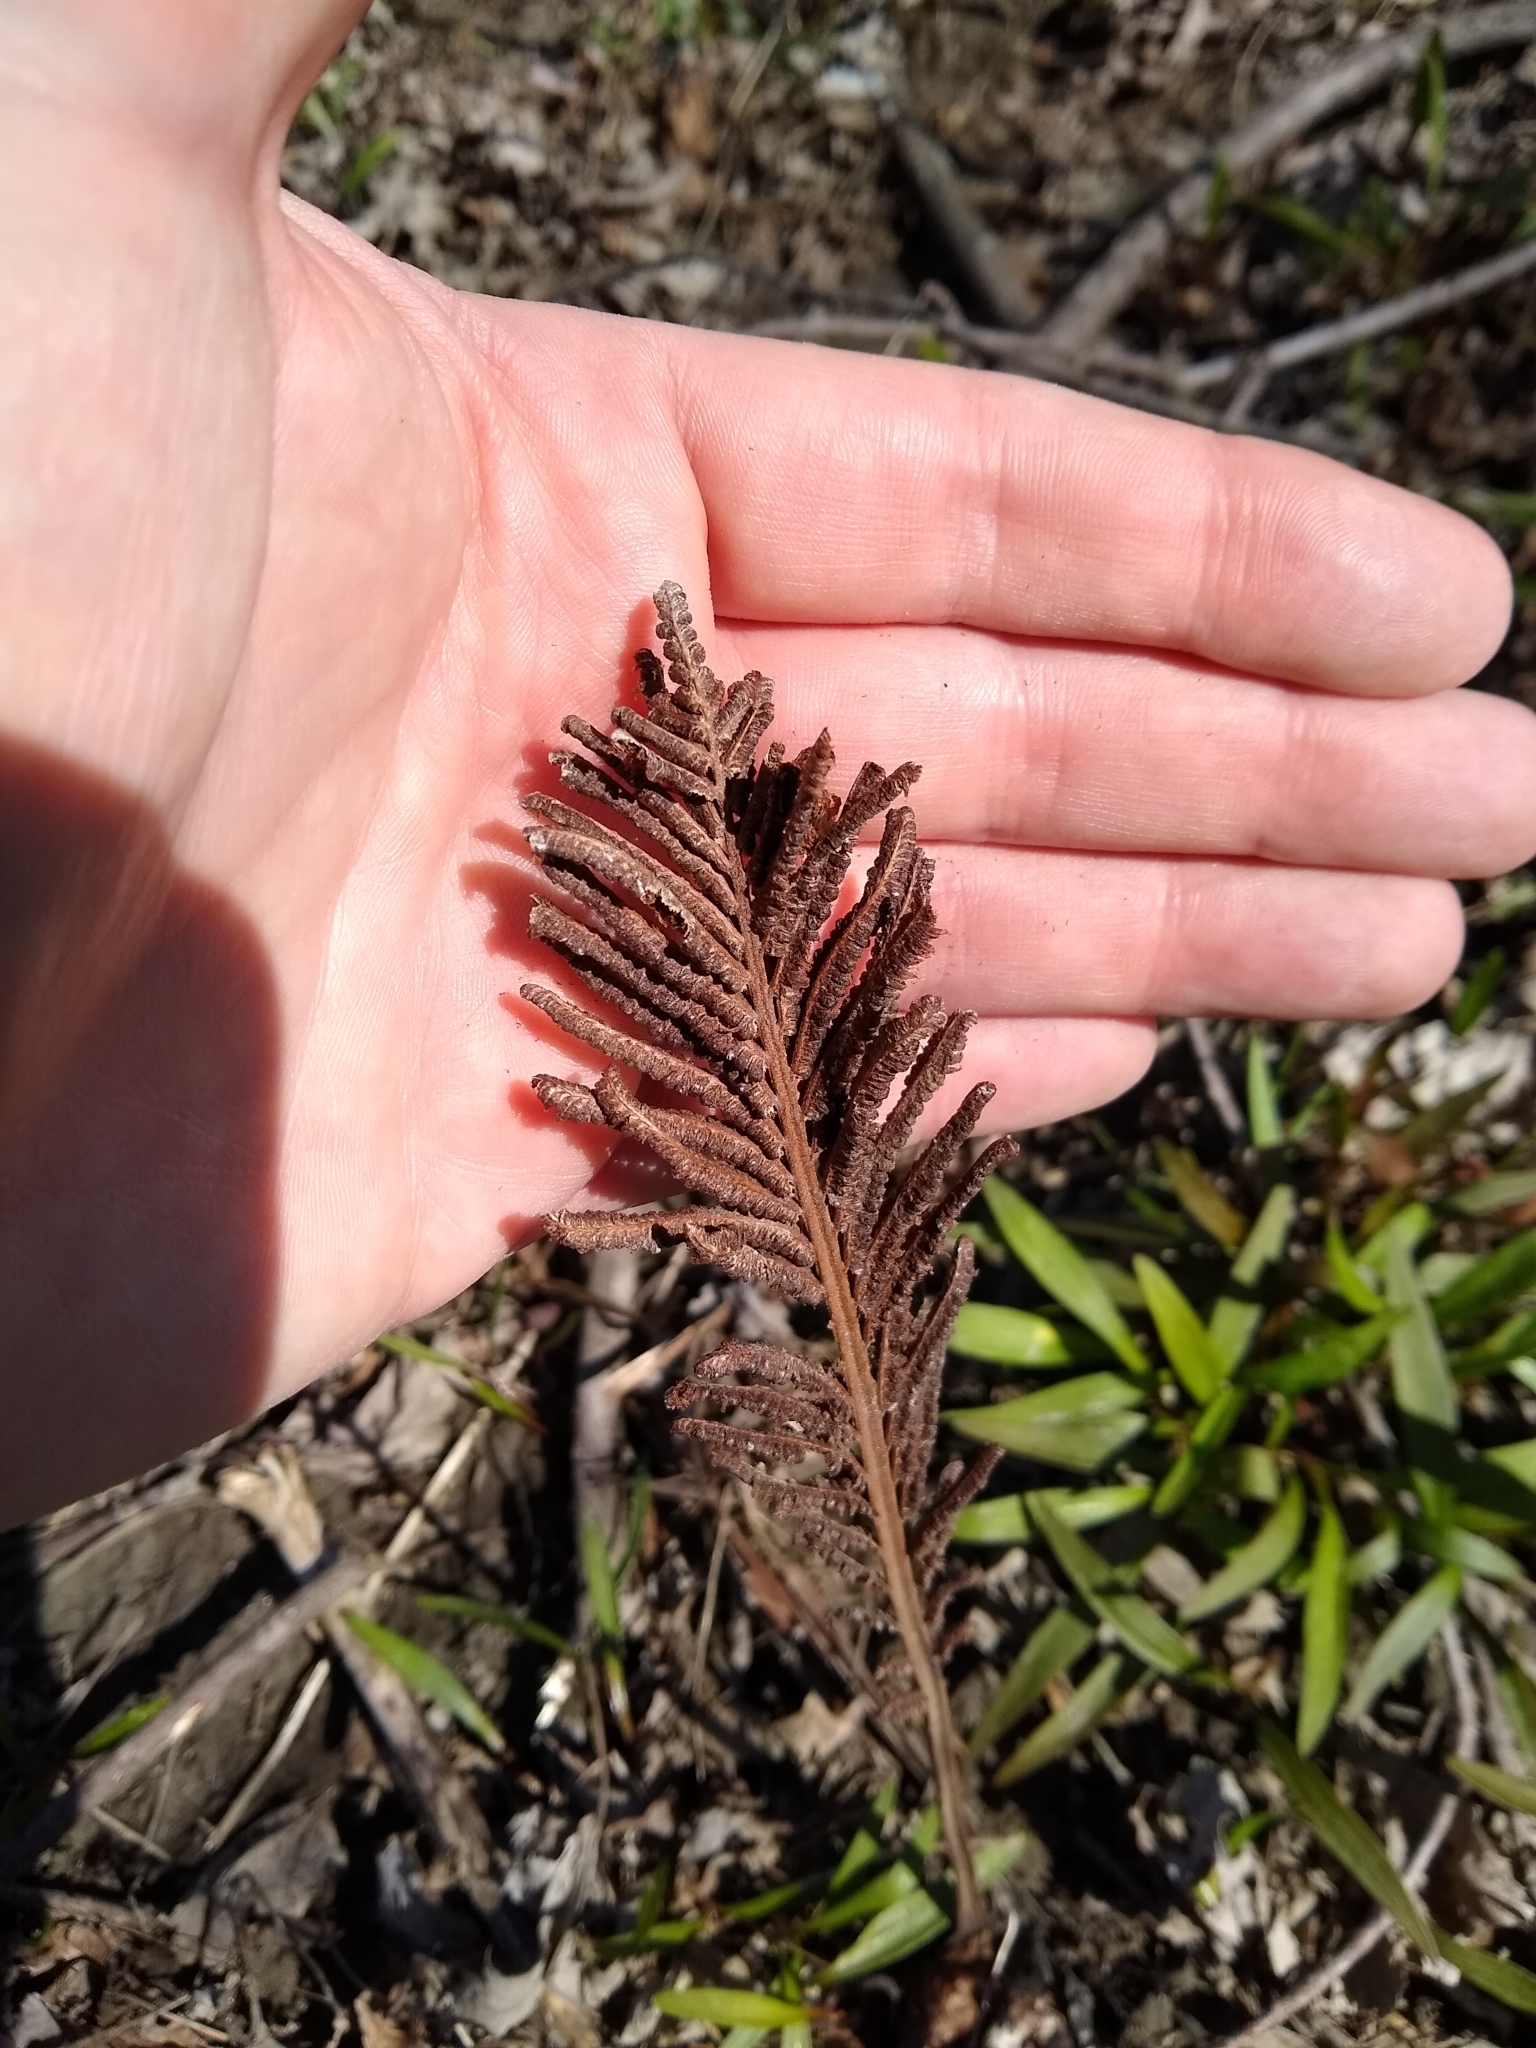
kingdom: Plantae
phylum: Tracheophyta
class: Polypodiopsida
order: Polypodiales
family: Onocleaceae
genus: Matteuccia
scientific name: Matteuccia struthiopteris
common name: Ostrich fern
